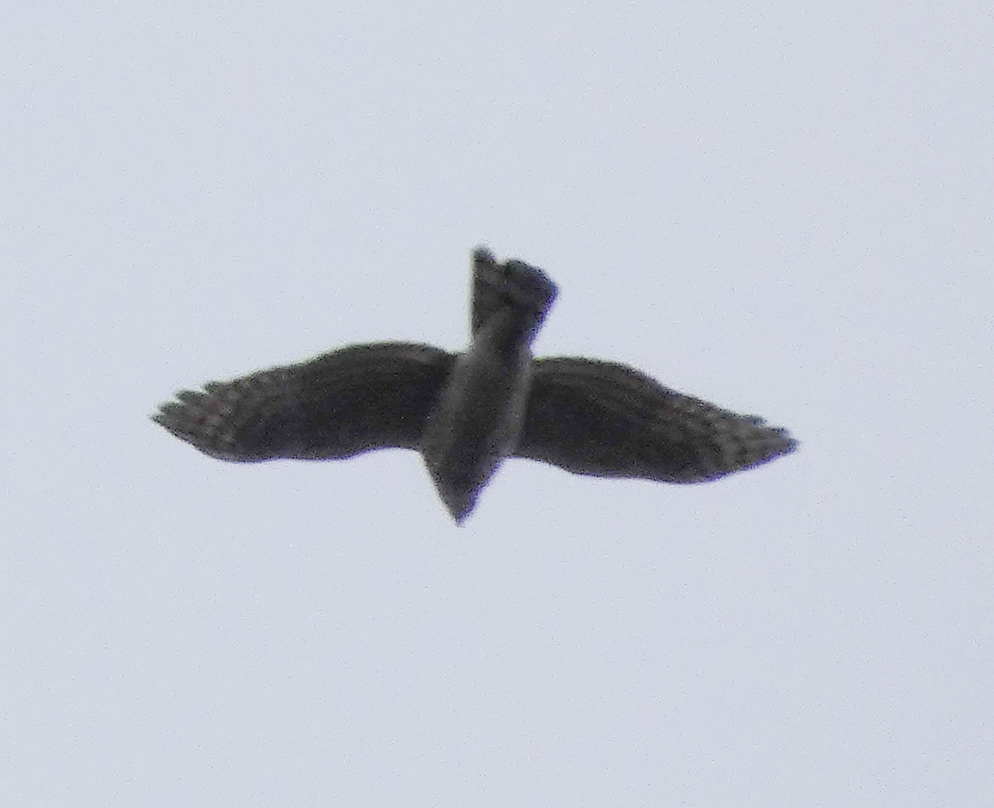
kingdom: Animalia
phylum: Chordata
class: Aves
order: Accipitriformes
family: Accipitridae
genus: Accipiter
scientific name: Accipiter striatus
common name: Sharp-shinned hawk
